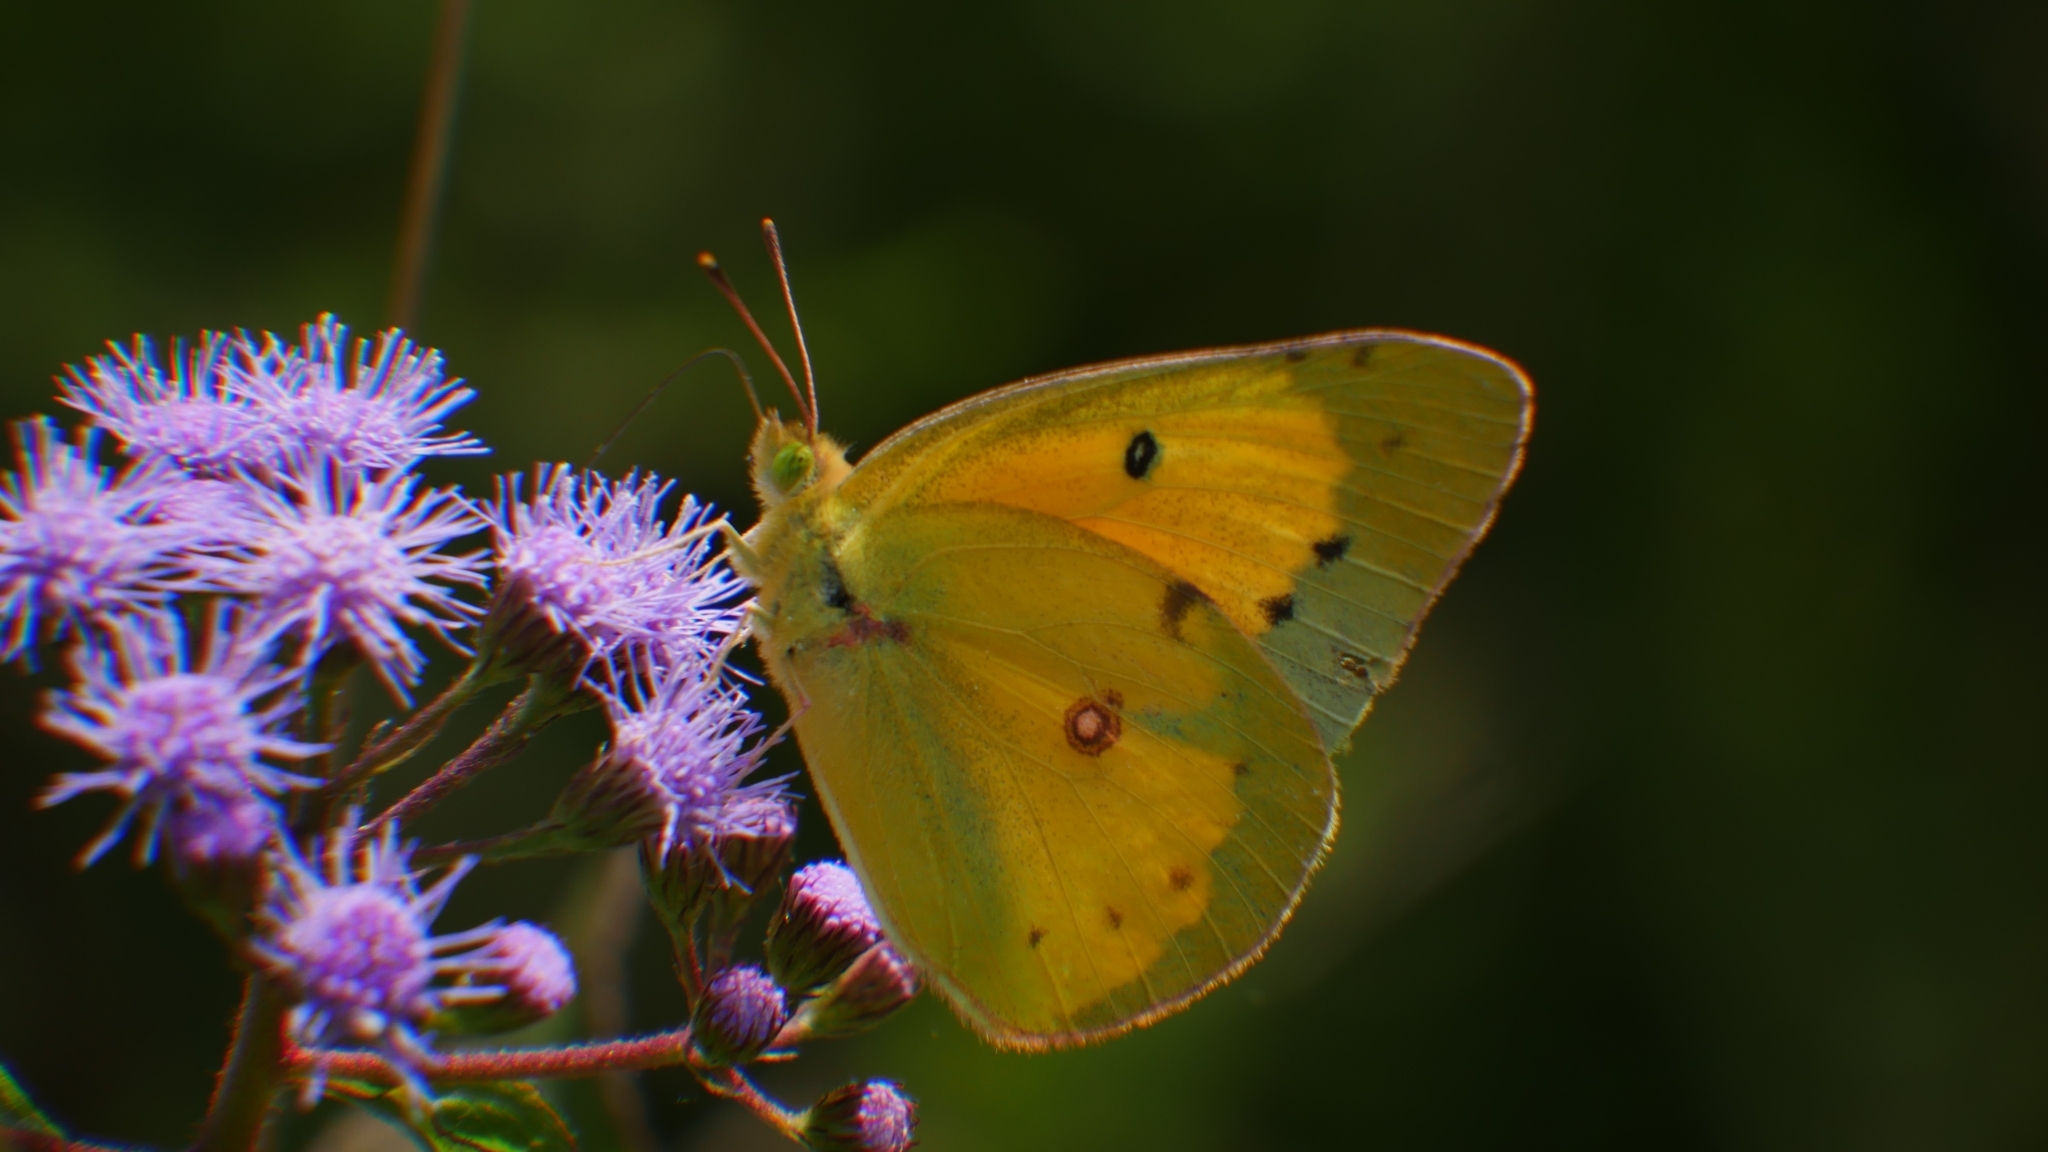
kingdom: Animalia
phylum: Arthropoda
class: Insecta
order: Lepidoptera
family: Pieridae
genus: Colias
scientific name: Colias eurytheme
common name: Alfalfa butterfly
